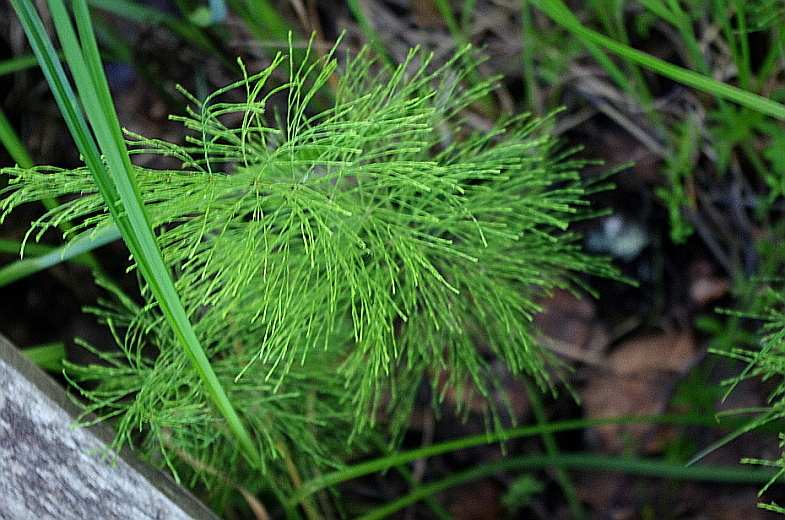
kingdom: Plantae
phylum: Tracheophyta
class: Polypodiopsida
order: Equisetales
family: Equisetaceae
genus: Equisetum
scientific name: Equisetum sylvaticum
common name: Wood horsetail
